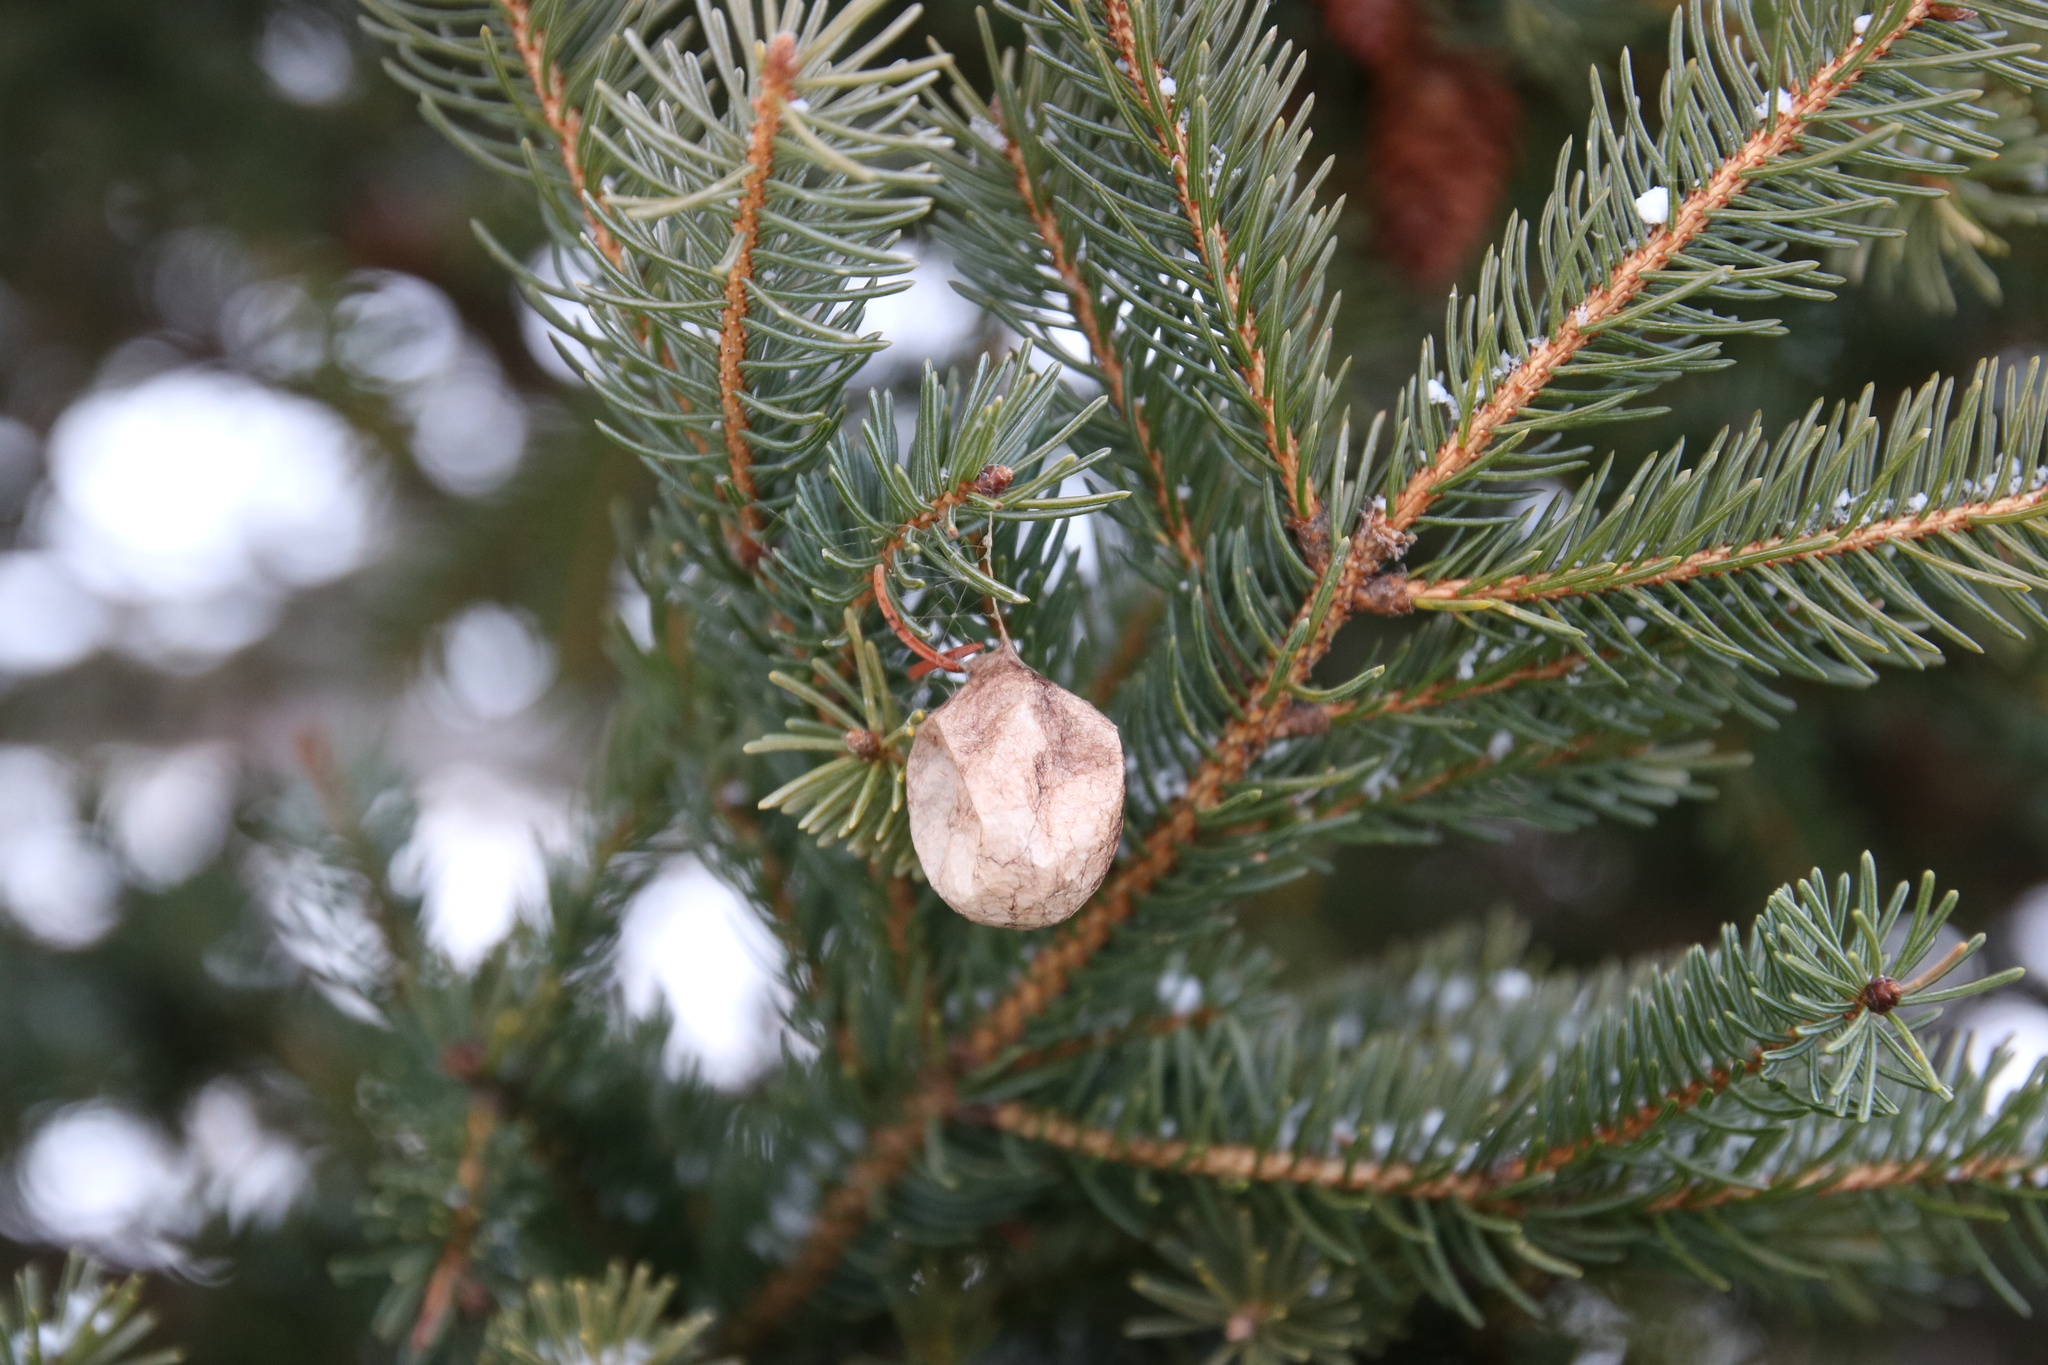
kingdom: Animalia
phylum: Arthropoda
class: Arachnida
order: Araneae
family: Araneidae
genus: Argiope
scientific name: Argiope aurantia
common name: Orb weavers
